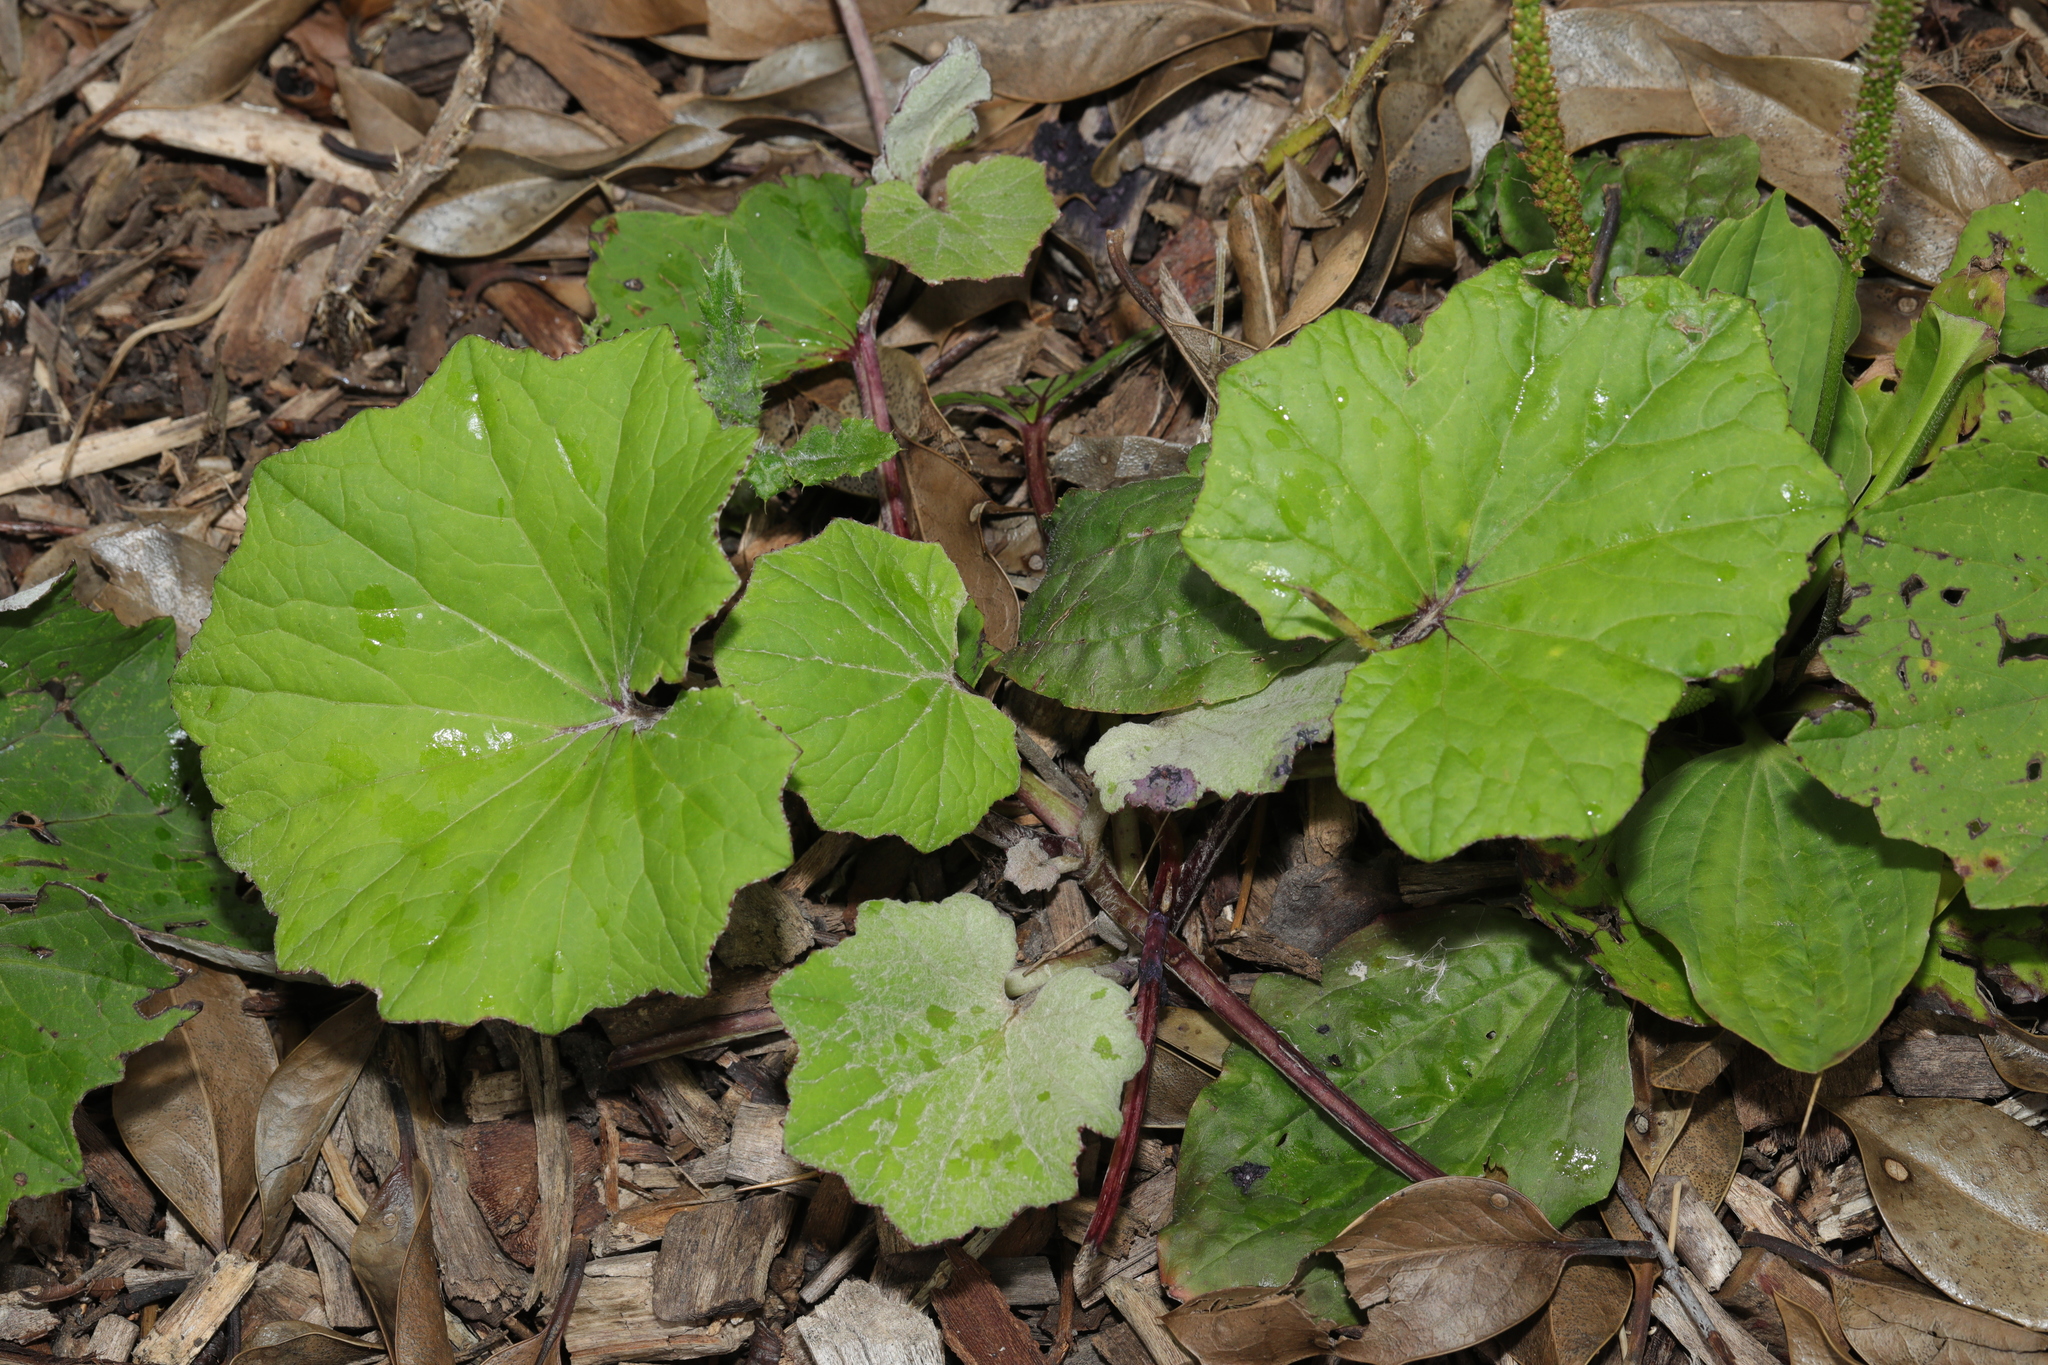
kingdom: Plantae
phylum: Tracheophyta
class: Magnoliopsida
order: Asterales
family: Asteraceae
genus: Tussilago
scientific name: Tussilago farfara
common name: Coltsfoot
